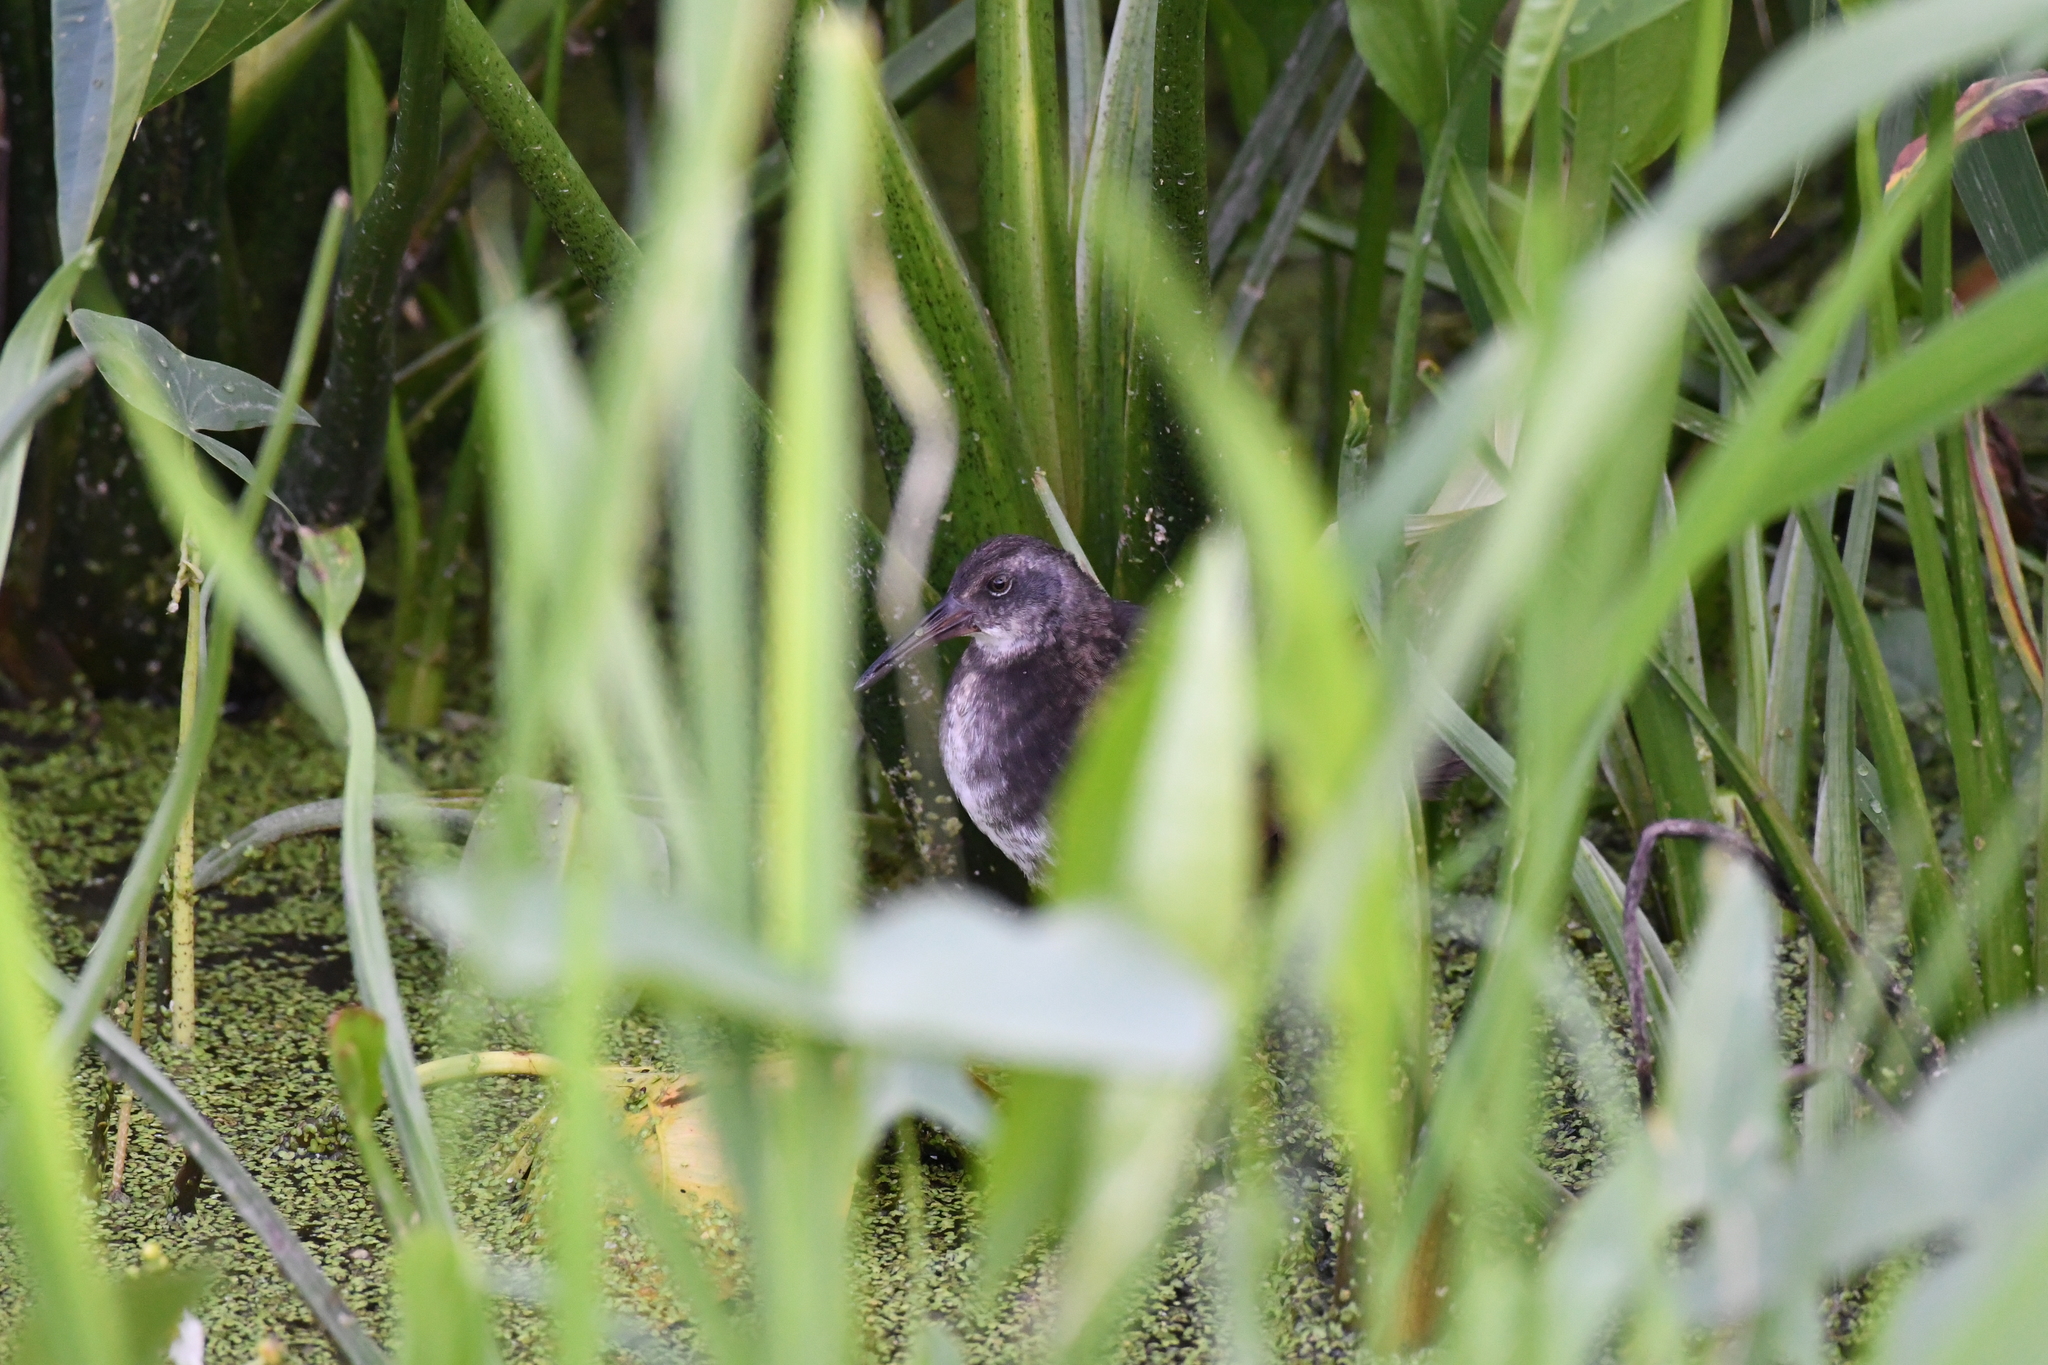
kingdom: Animalia
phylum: Chordata
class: Aves
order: Gruiformes
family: Rallidae
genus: Rallus
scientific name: Rallus limicola
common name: Virginia rail
